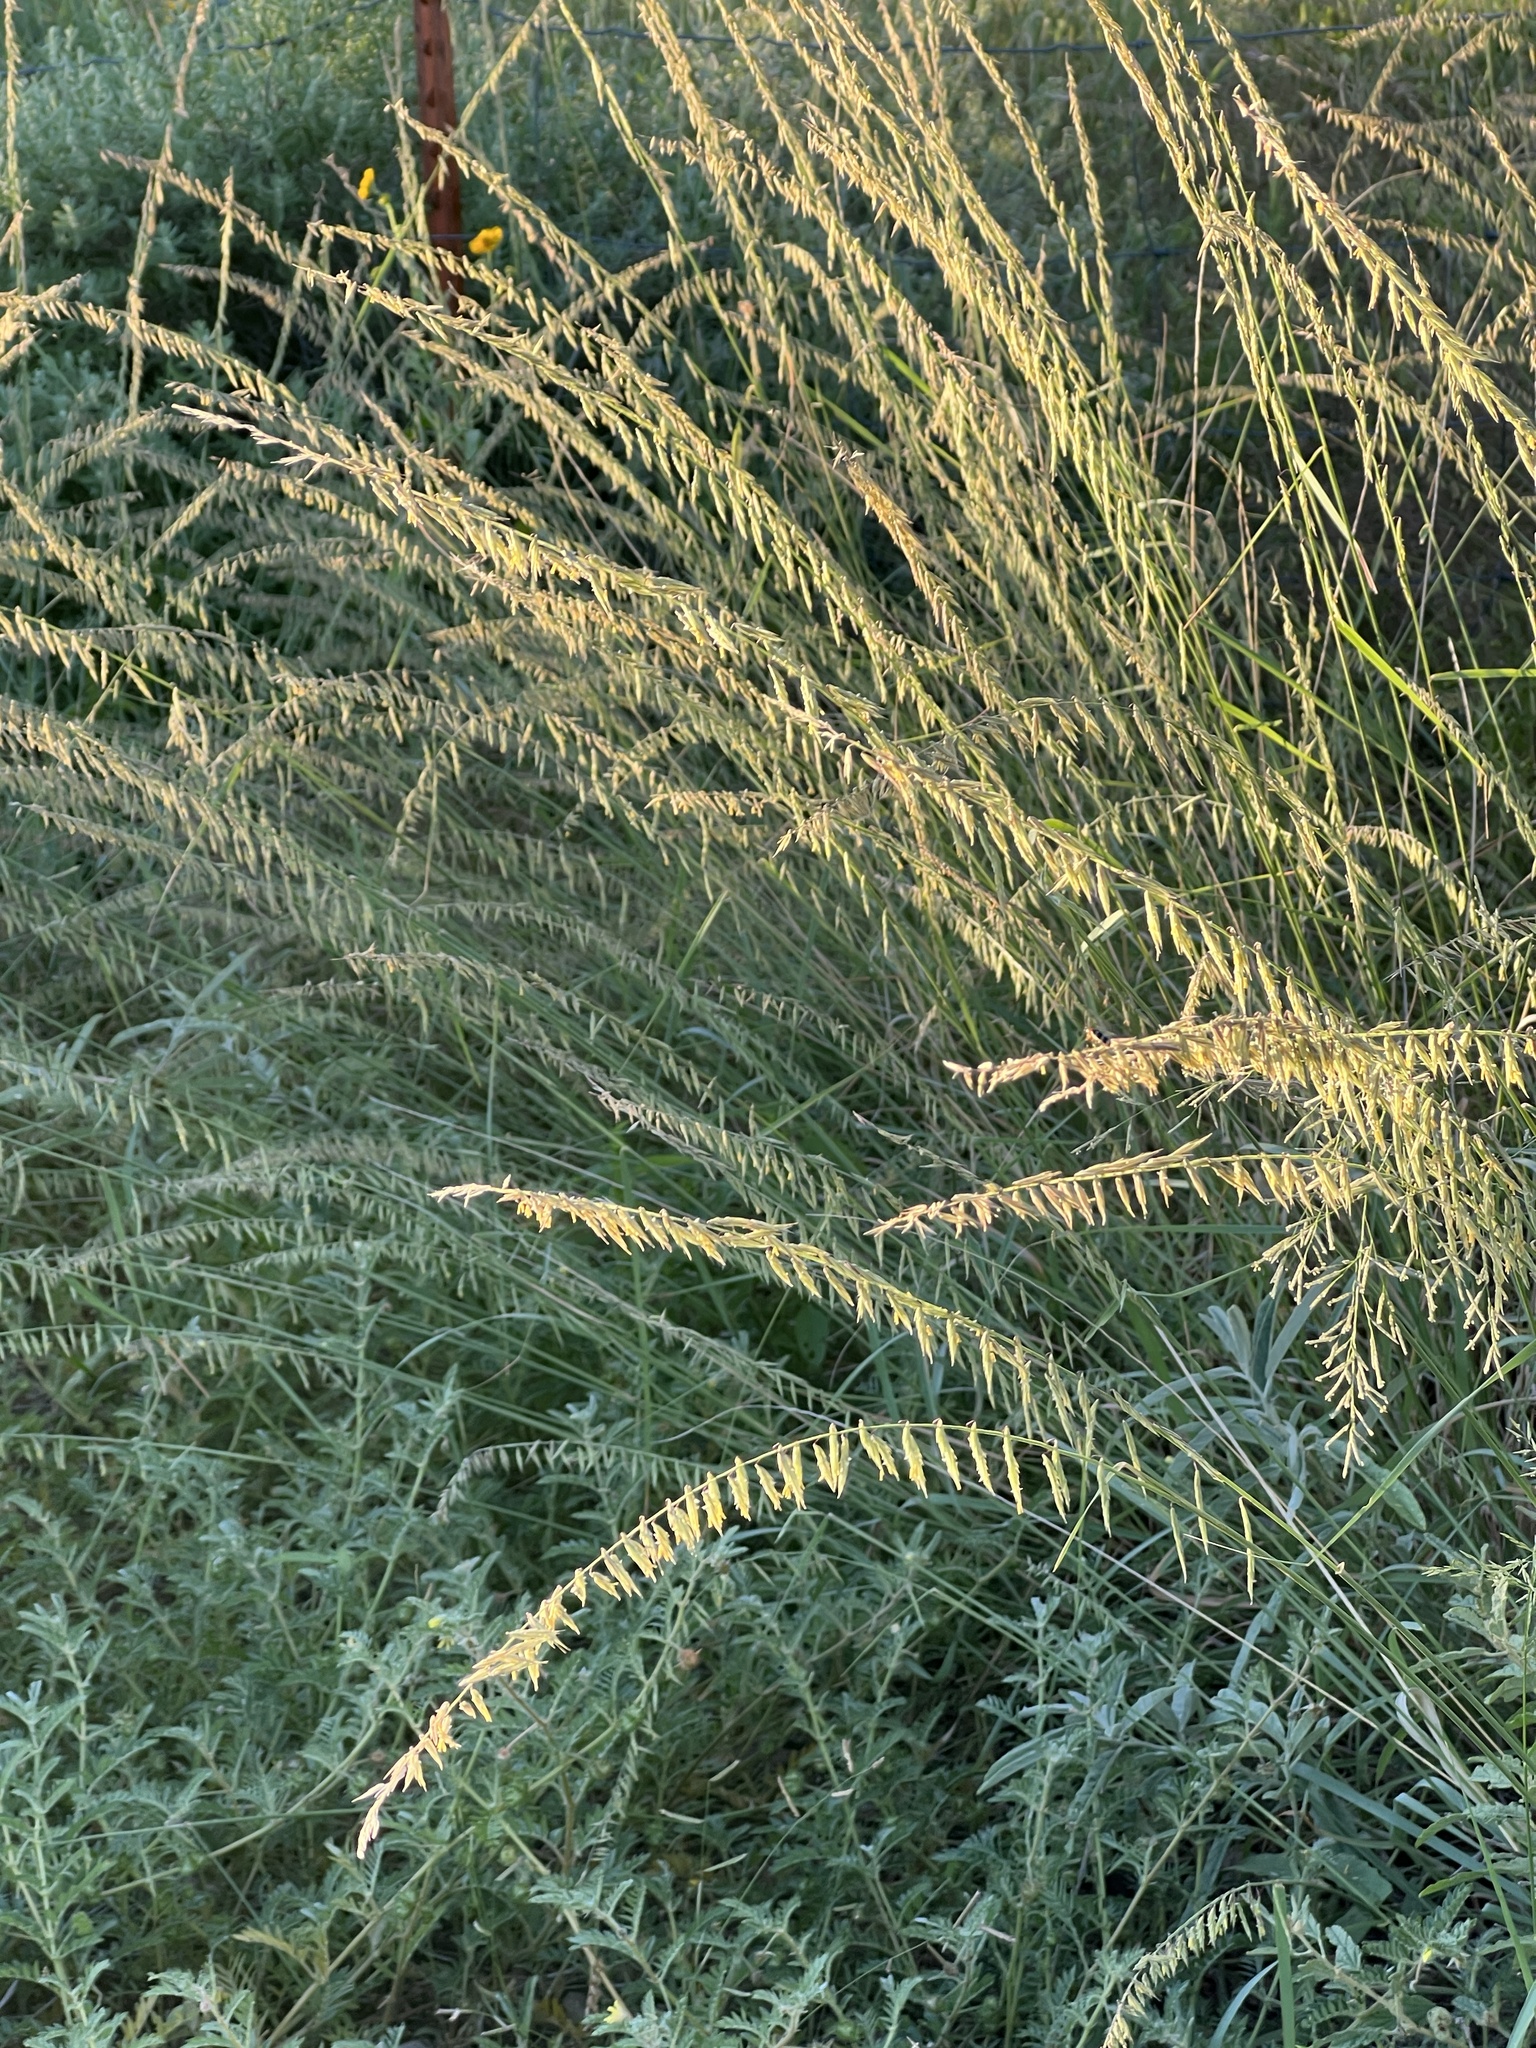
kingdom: Plantae
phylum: Tracheophyta
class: Liliopsida
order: Poales
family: Poaceae
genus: Bouteloua
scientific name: Bouteloua curtipendula
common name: Side-oats grama
